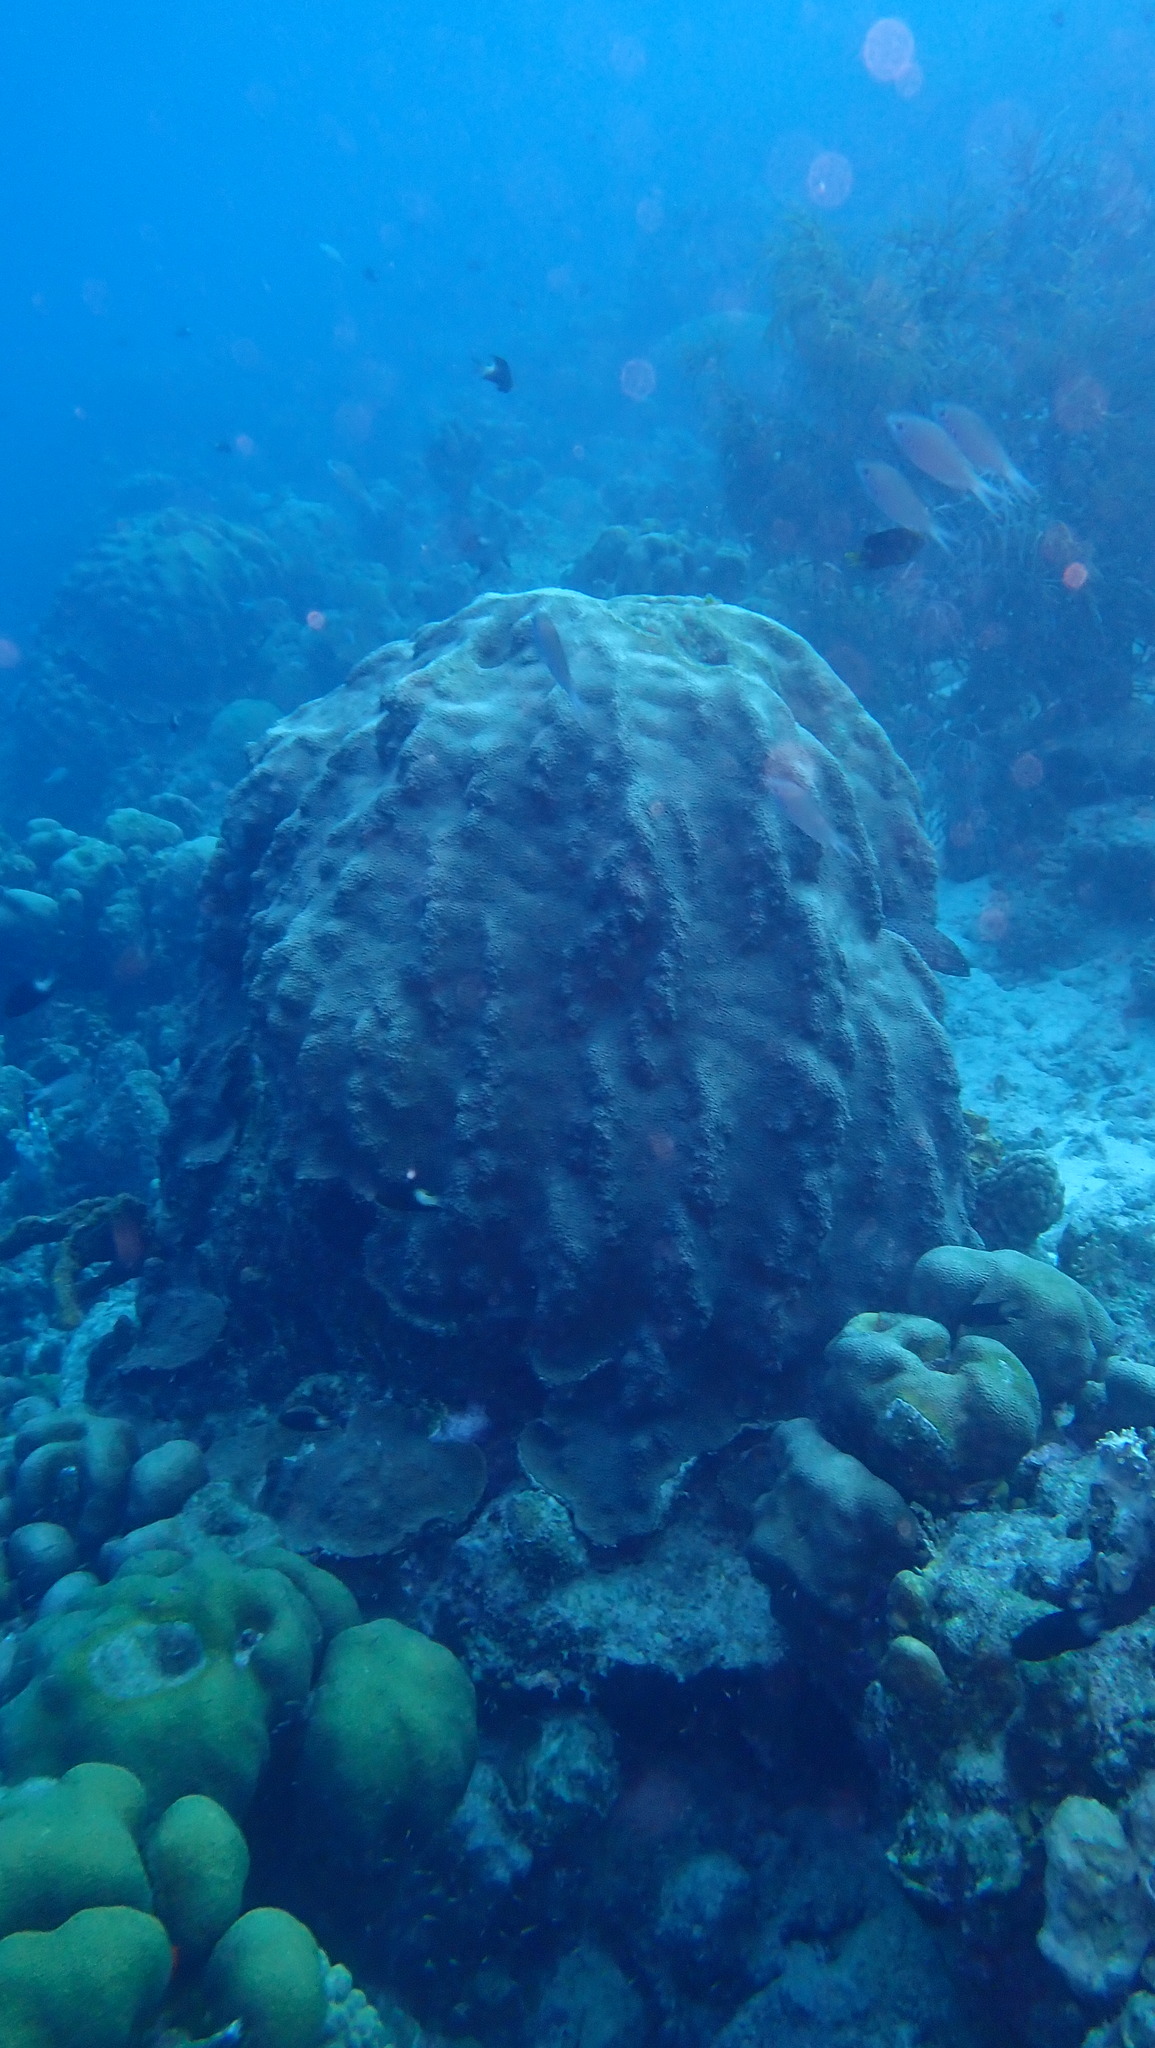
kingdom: Animalia
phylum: Cnidaria
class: Anthozoa
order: Scleractinia
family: Merulinidae
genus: Orbicella
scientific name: Orbicella faveolata
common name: Mountainous star coral
